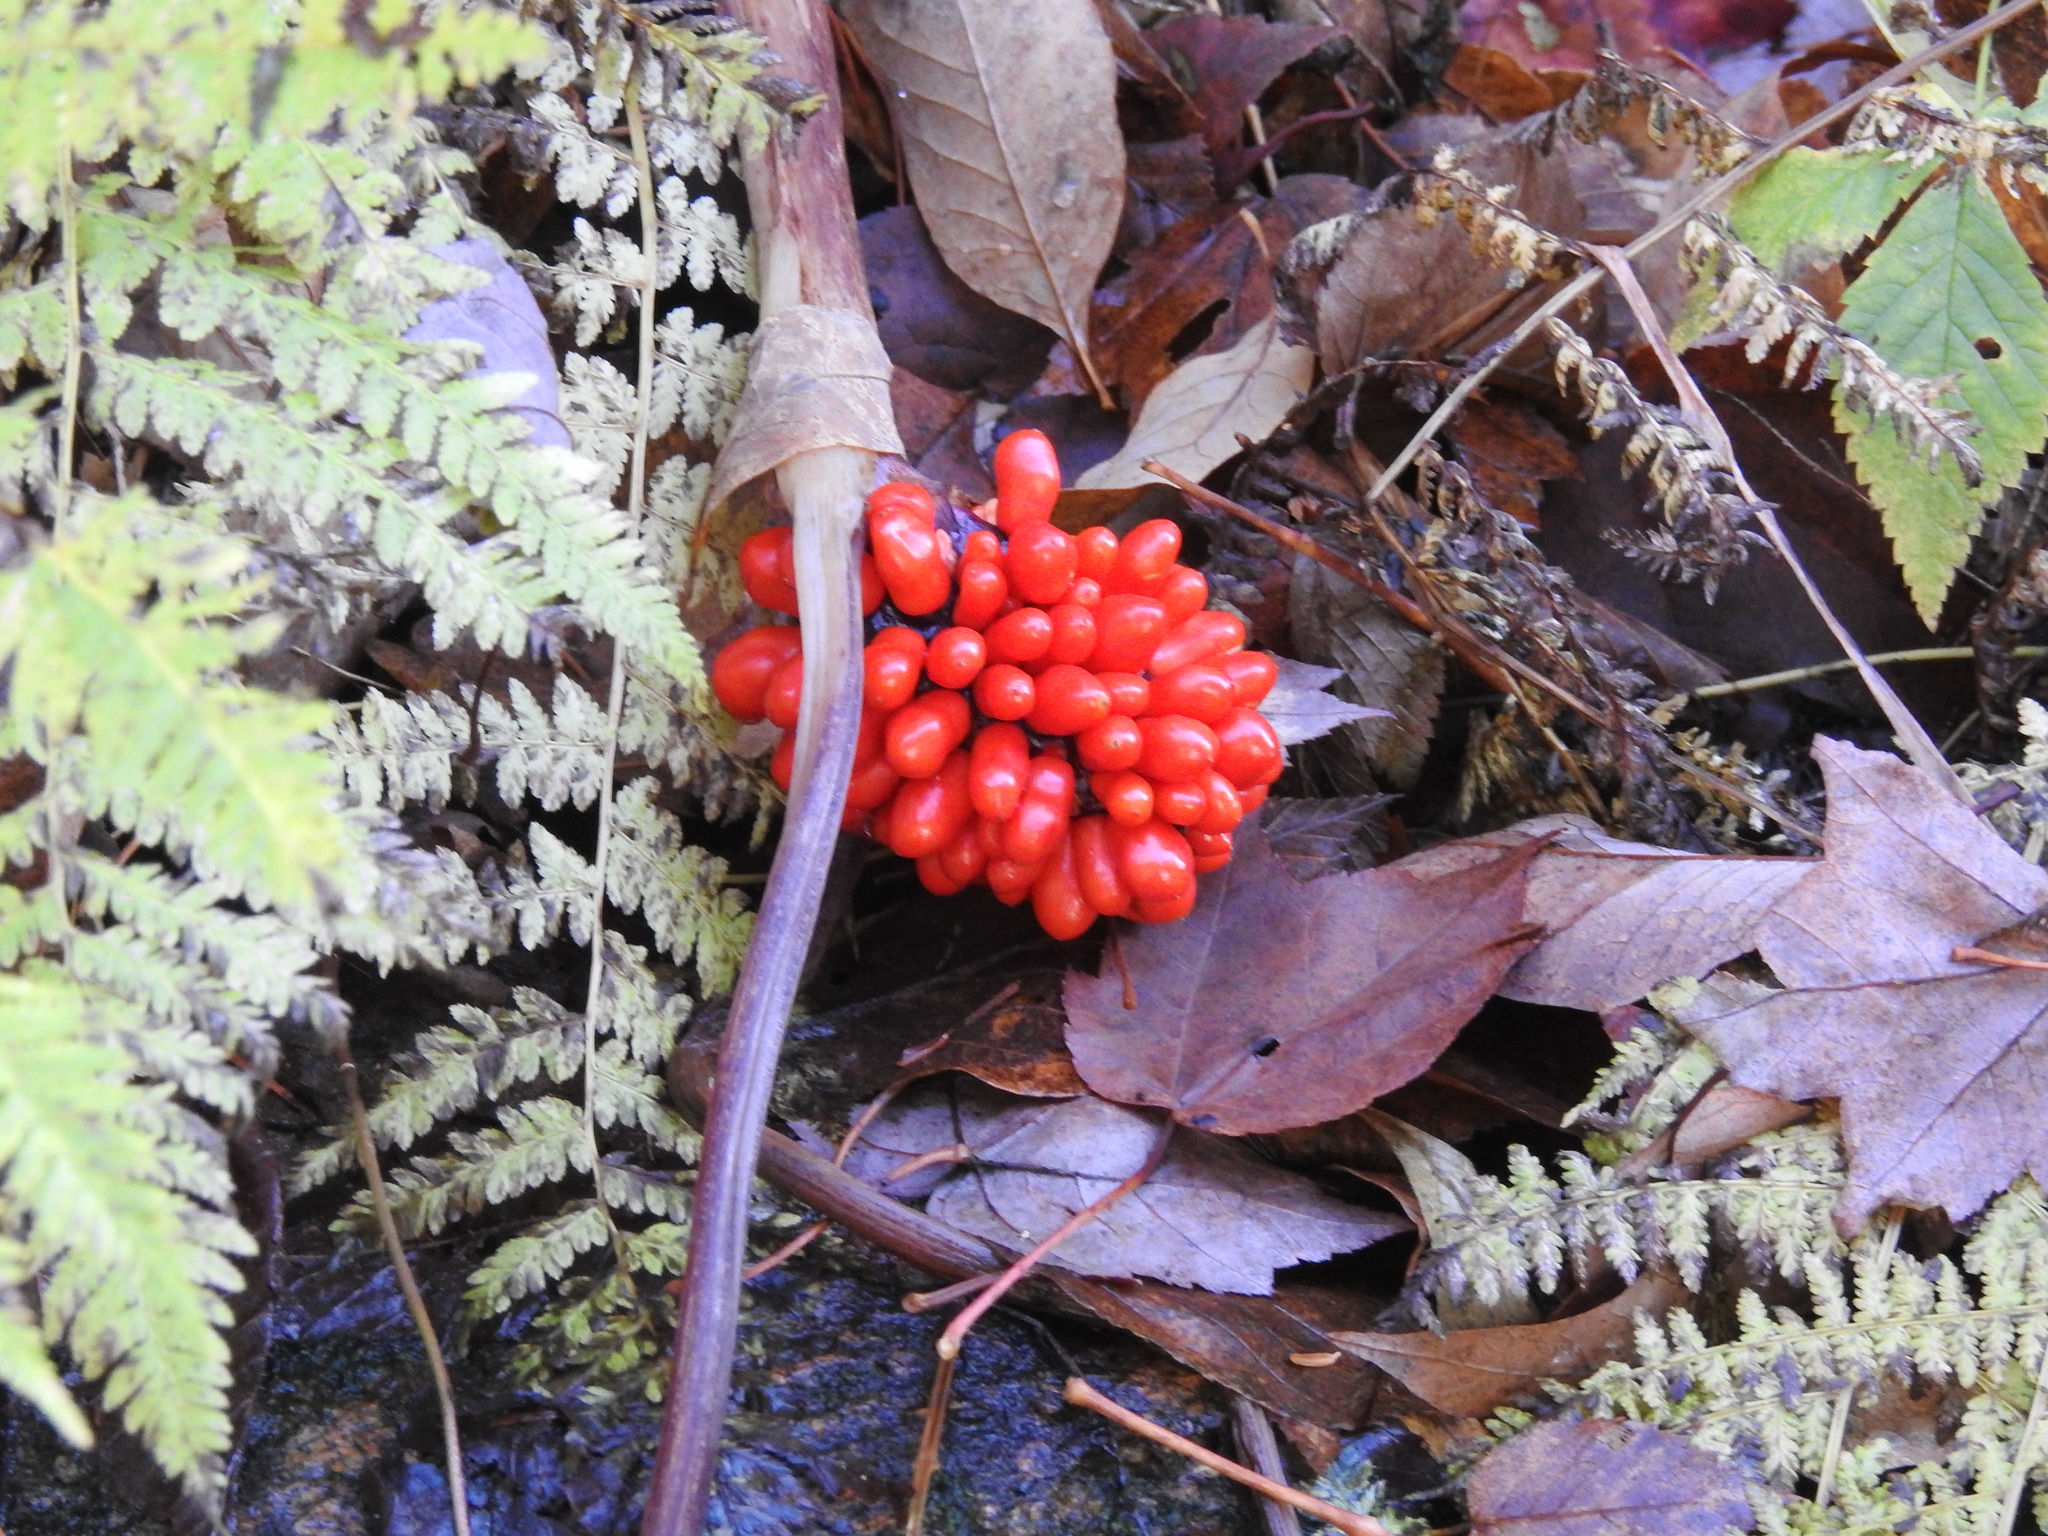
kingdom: Plantae
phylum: Tracheophyta
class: Liliopsida
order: Alismatales
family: Araceae
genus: Arisaema
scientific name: Arisaema triphyllum
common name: Jack-in-the-pulpit
